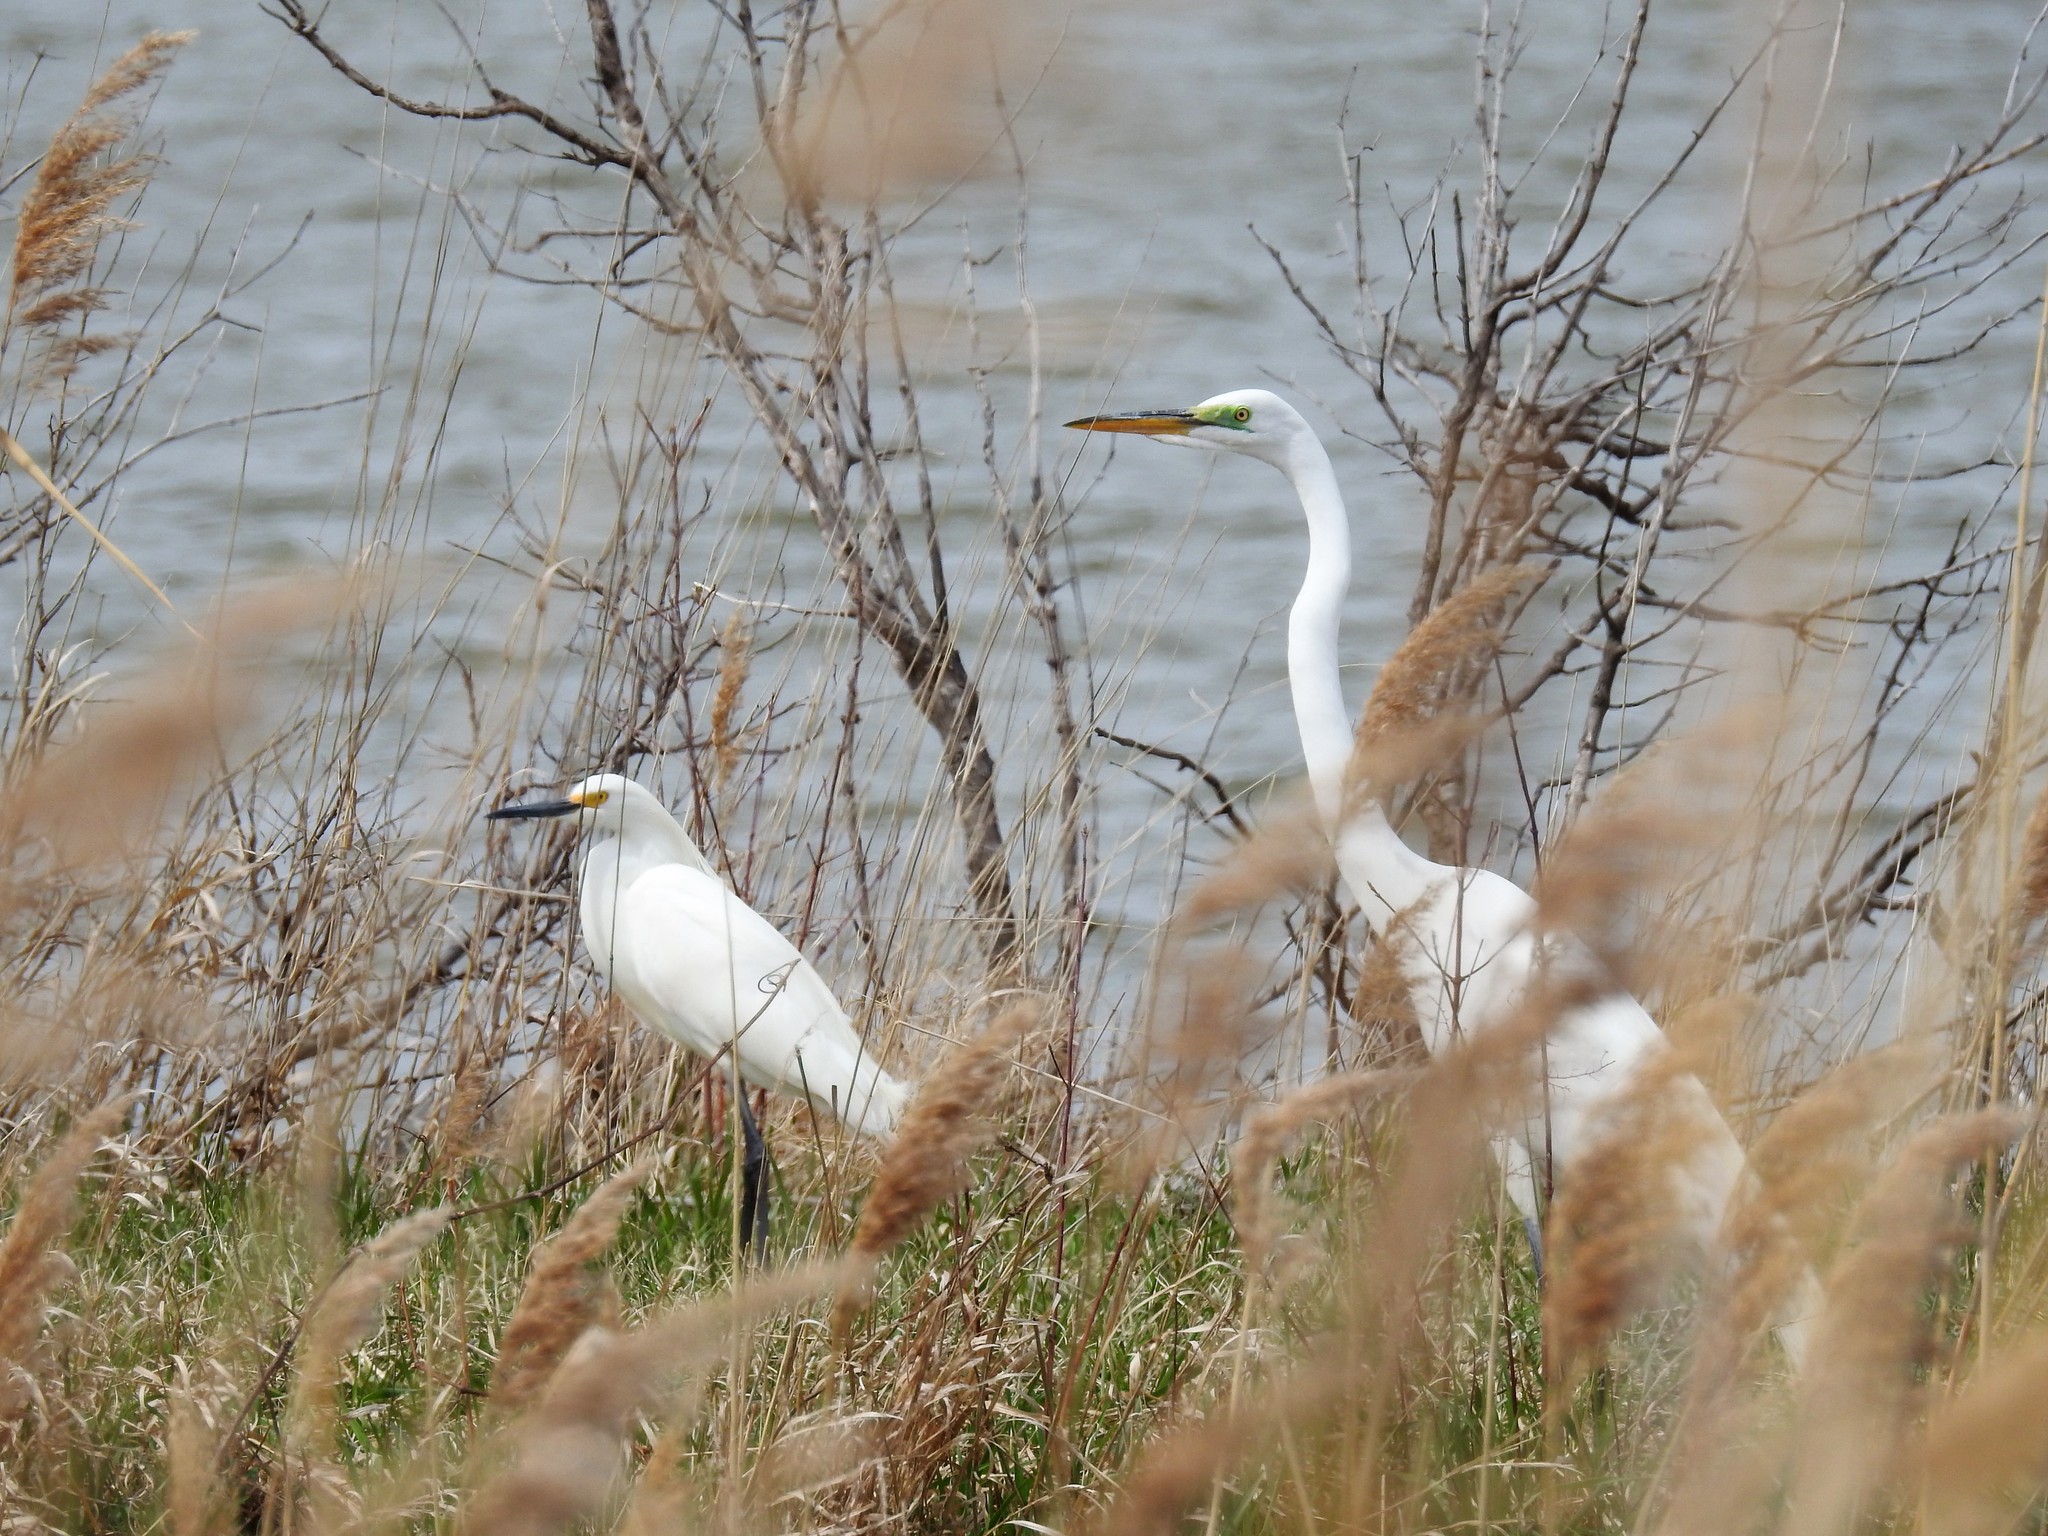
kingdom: Animalia
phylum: Chordata
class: Aves
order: Pelecaniformes
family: Ardeidae
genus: Egretta
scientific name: Egretta thula
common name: Snowy egret
